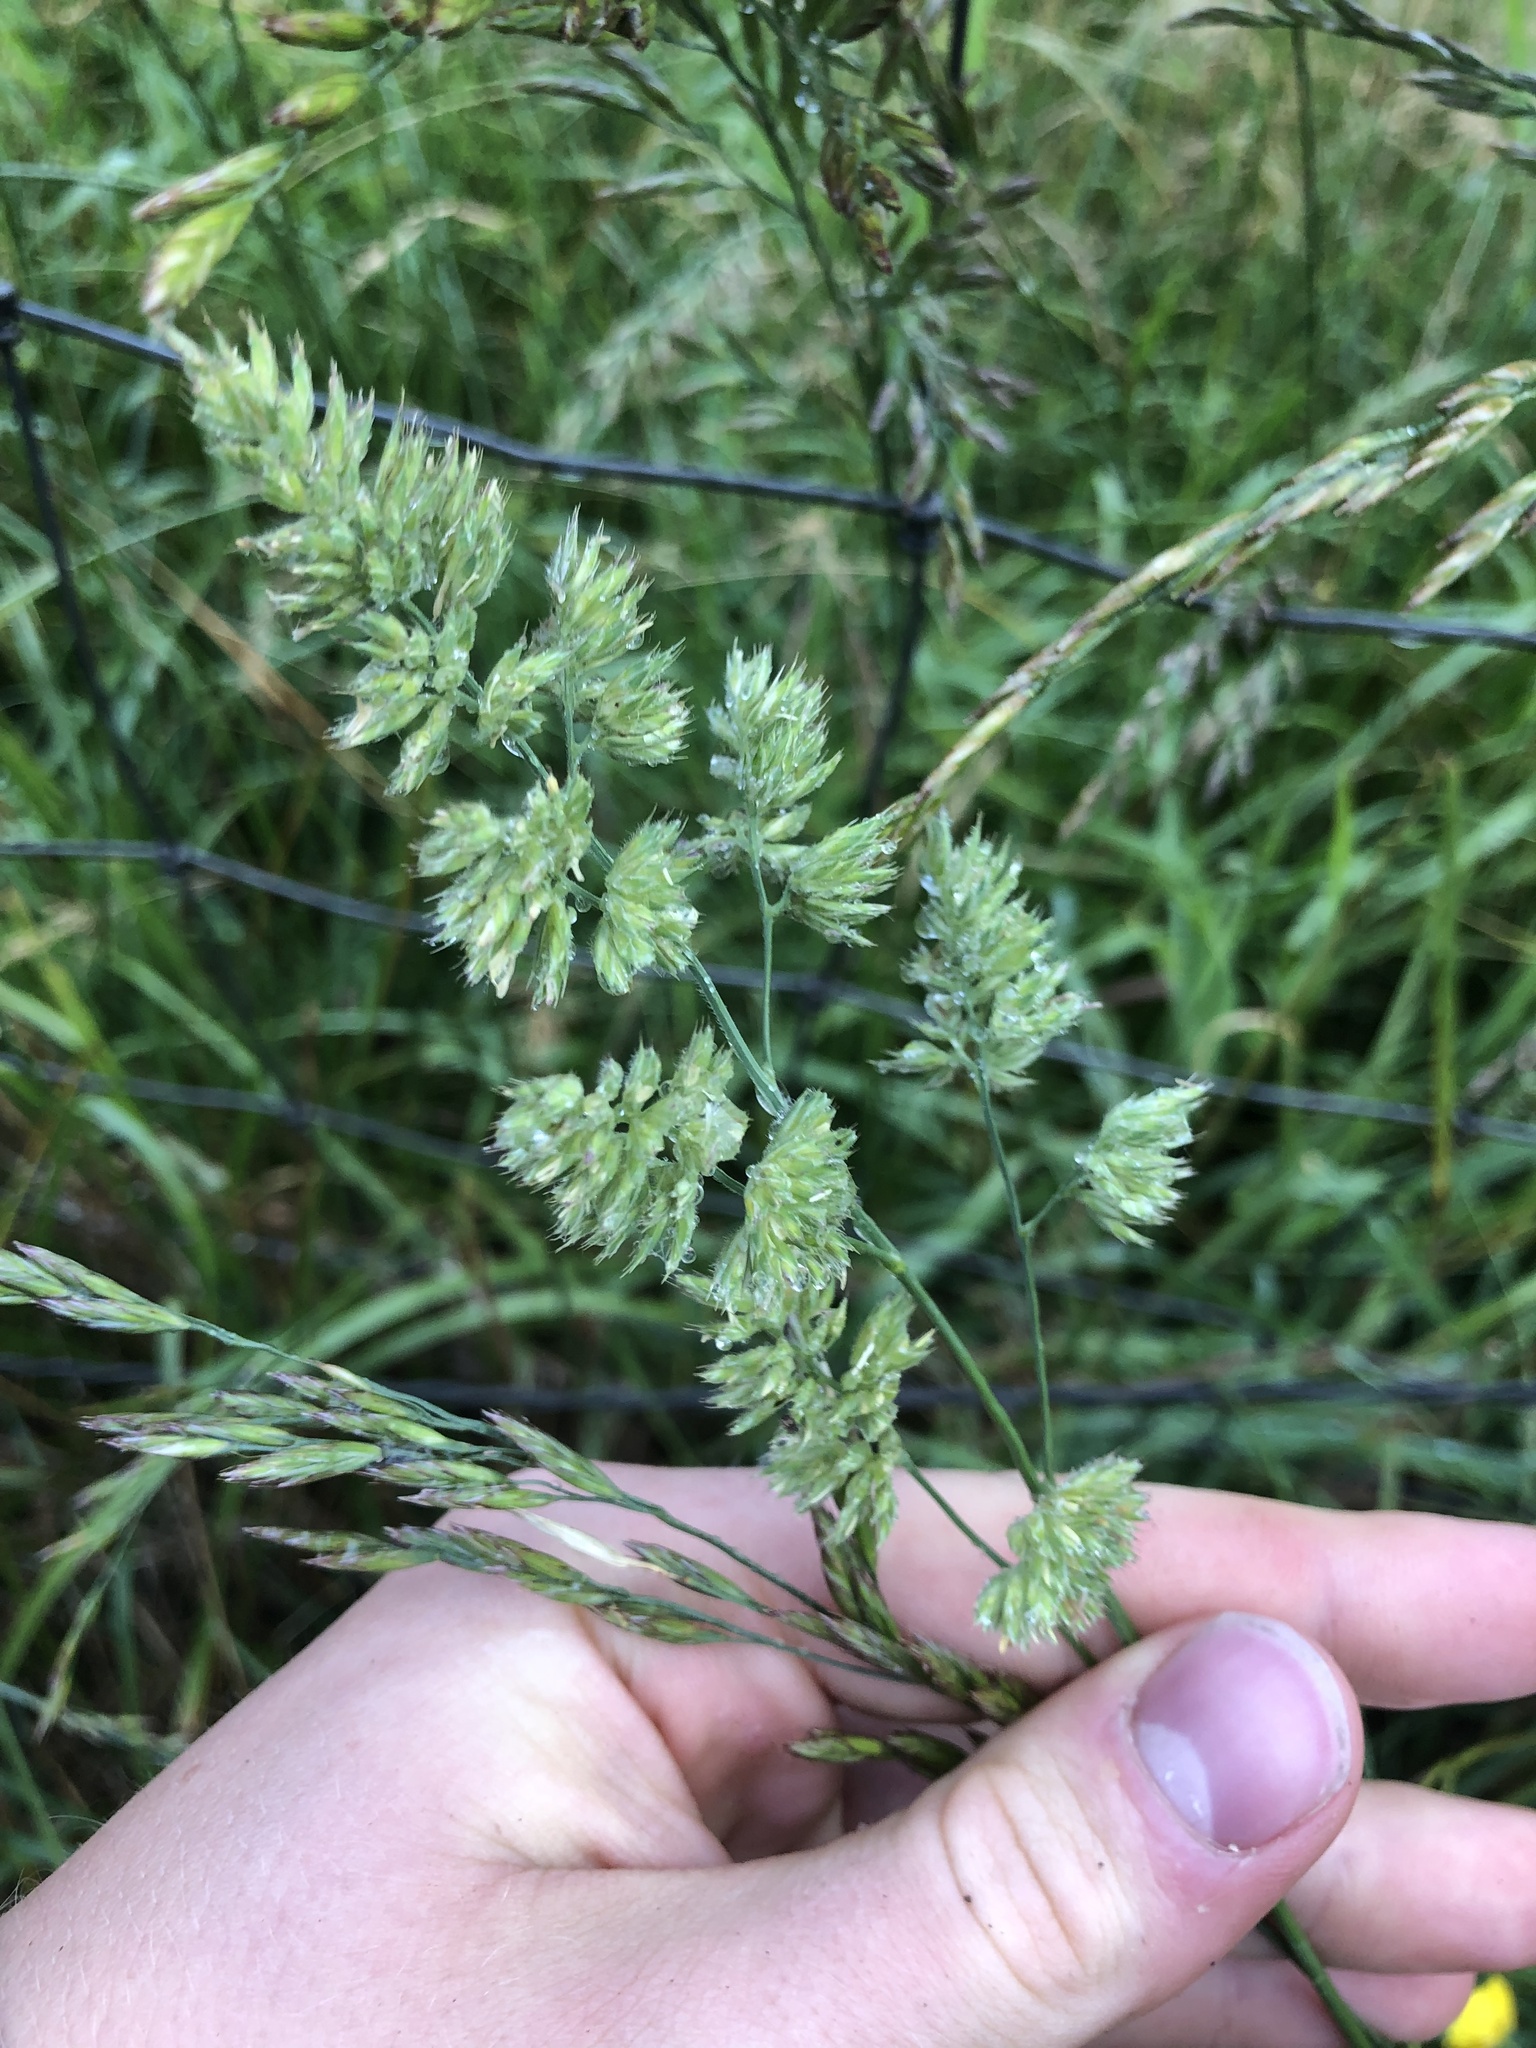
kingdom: Plantae
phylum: Tracheophyta
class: Liliopsida
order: Poales
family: Poaceae
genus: Dactylis
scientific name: Dactylis glomerata
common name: Orchardgrass
